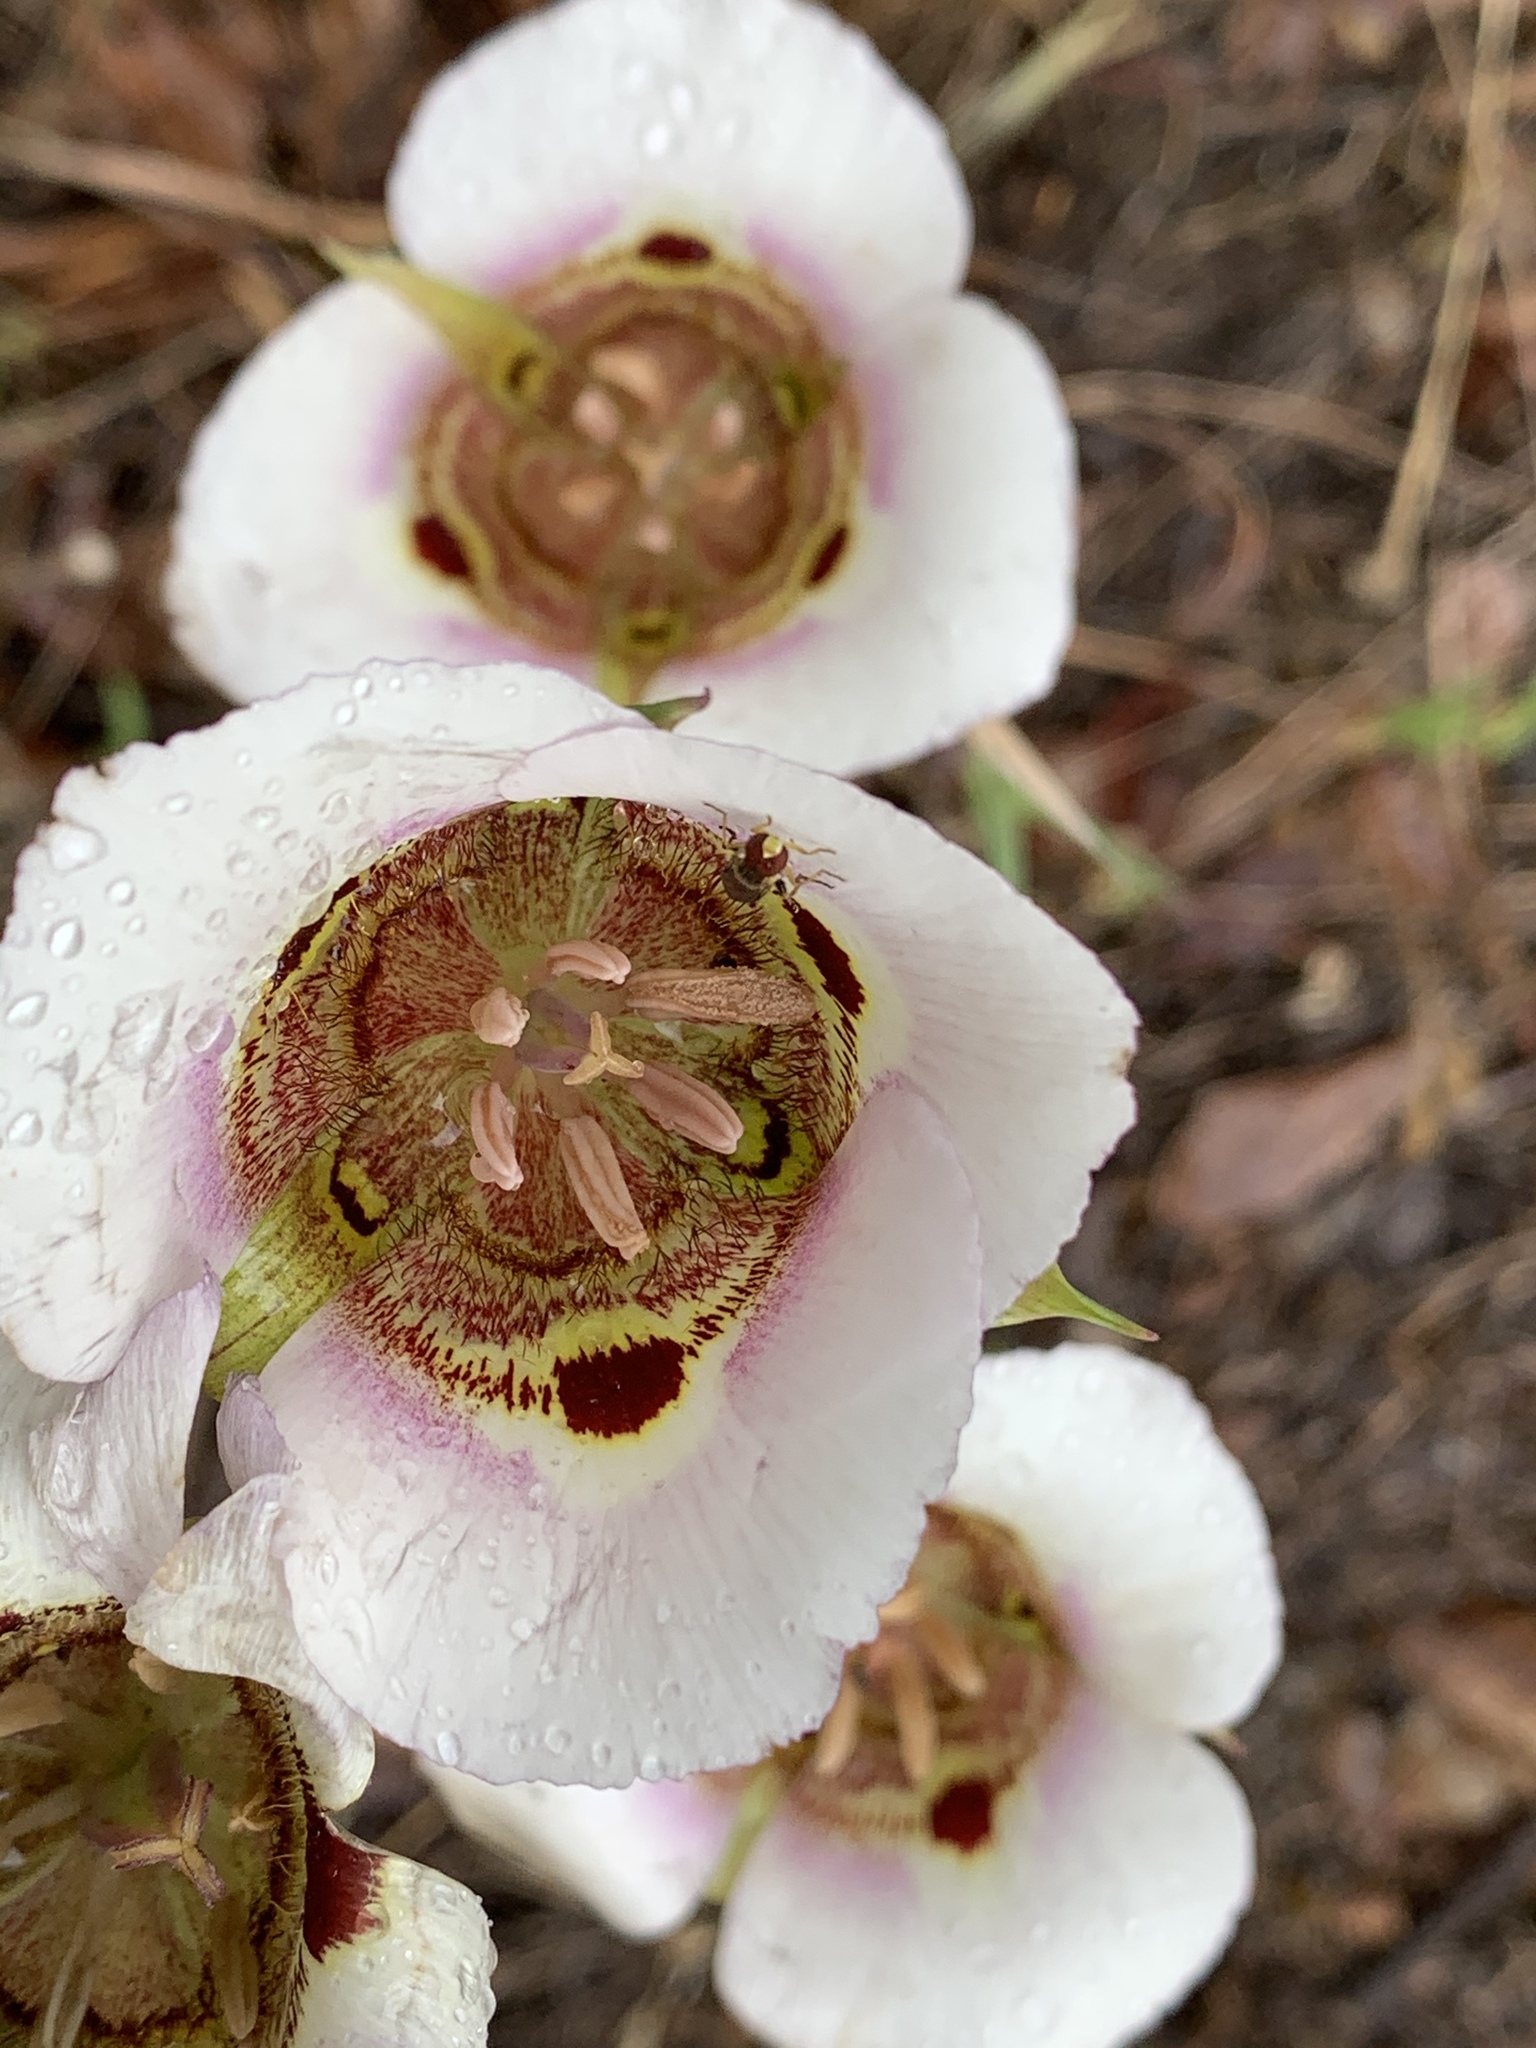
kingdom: Plantae
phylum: Tracheophyta
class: Liliopsida
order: Liliales
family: Liliaceae
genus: Calochortus
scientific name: Calochortus vestae
